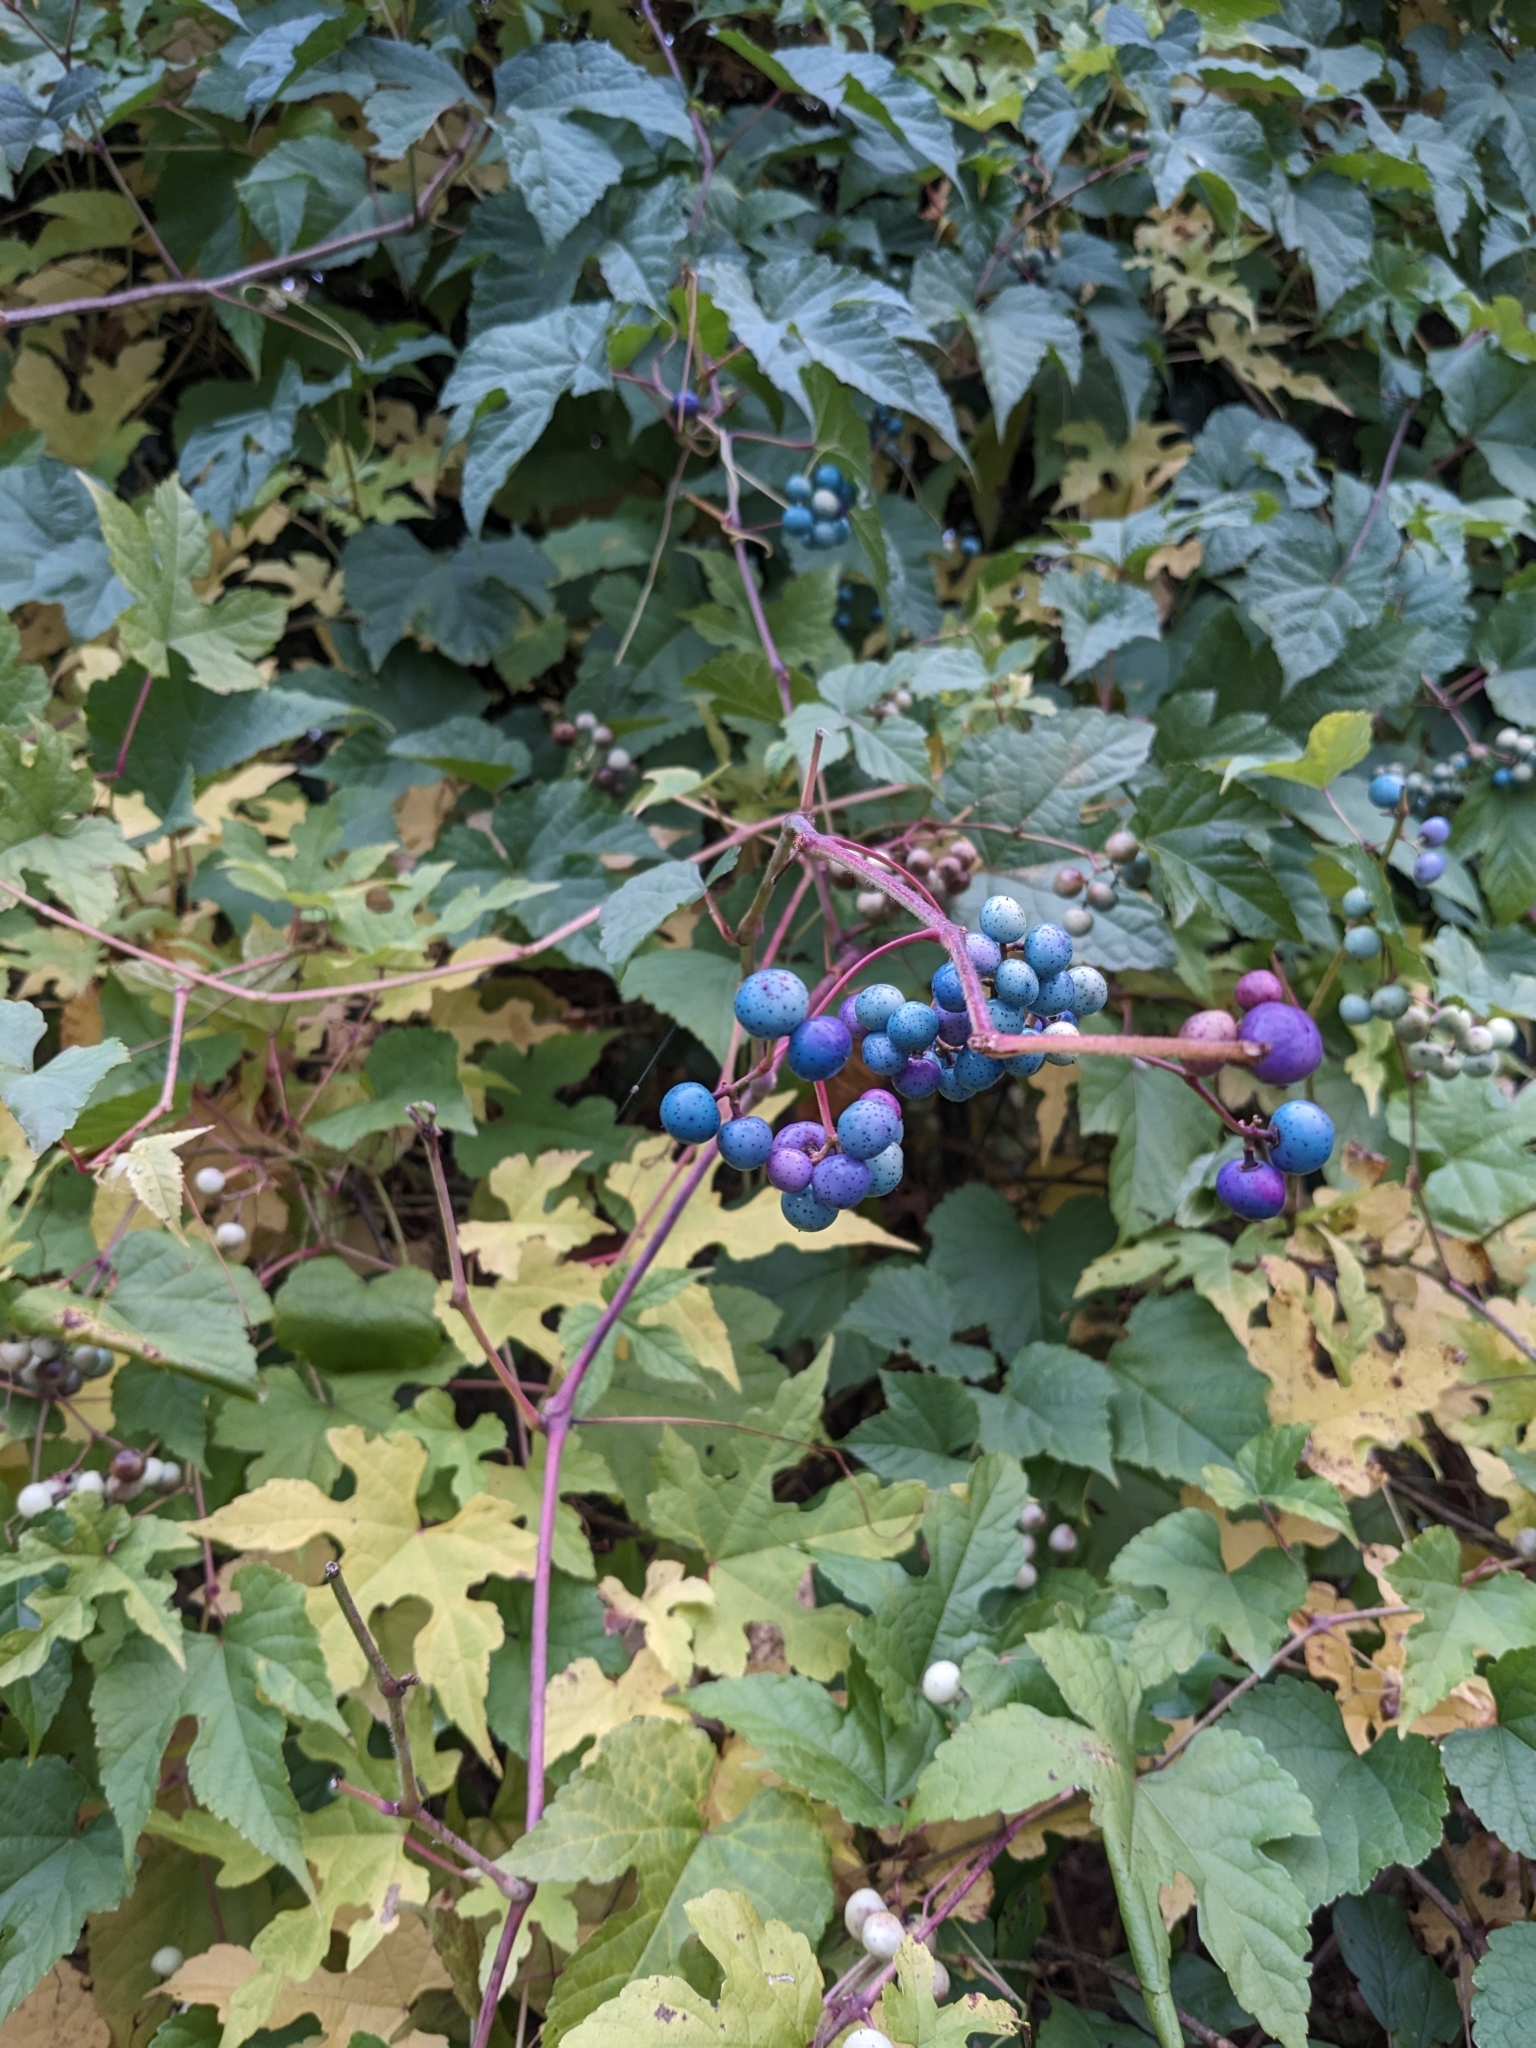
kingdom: Plantae
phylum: Tracheophyta
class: Magnoliopsida
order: Vitales
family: Vitaceae
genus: Ampelopsis
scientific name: Ampelopsis glandulosa
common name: Amur peppervine
